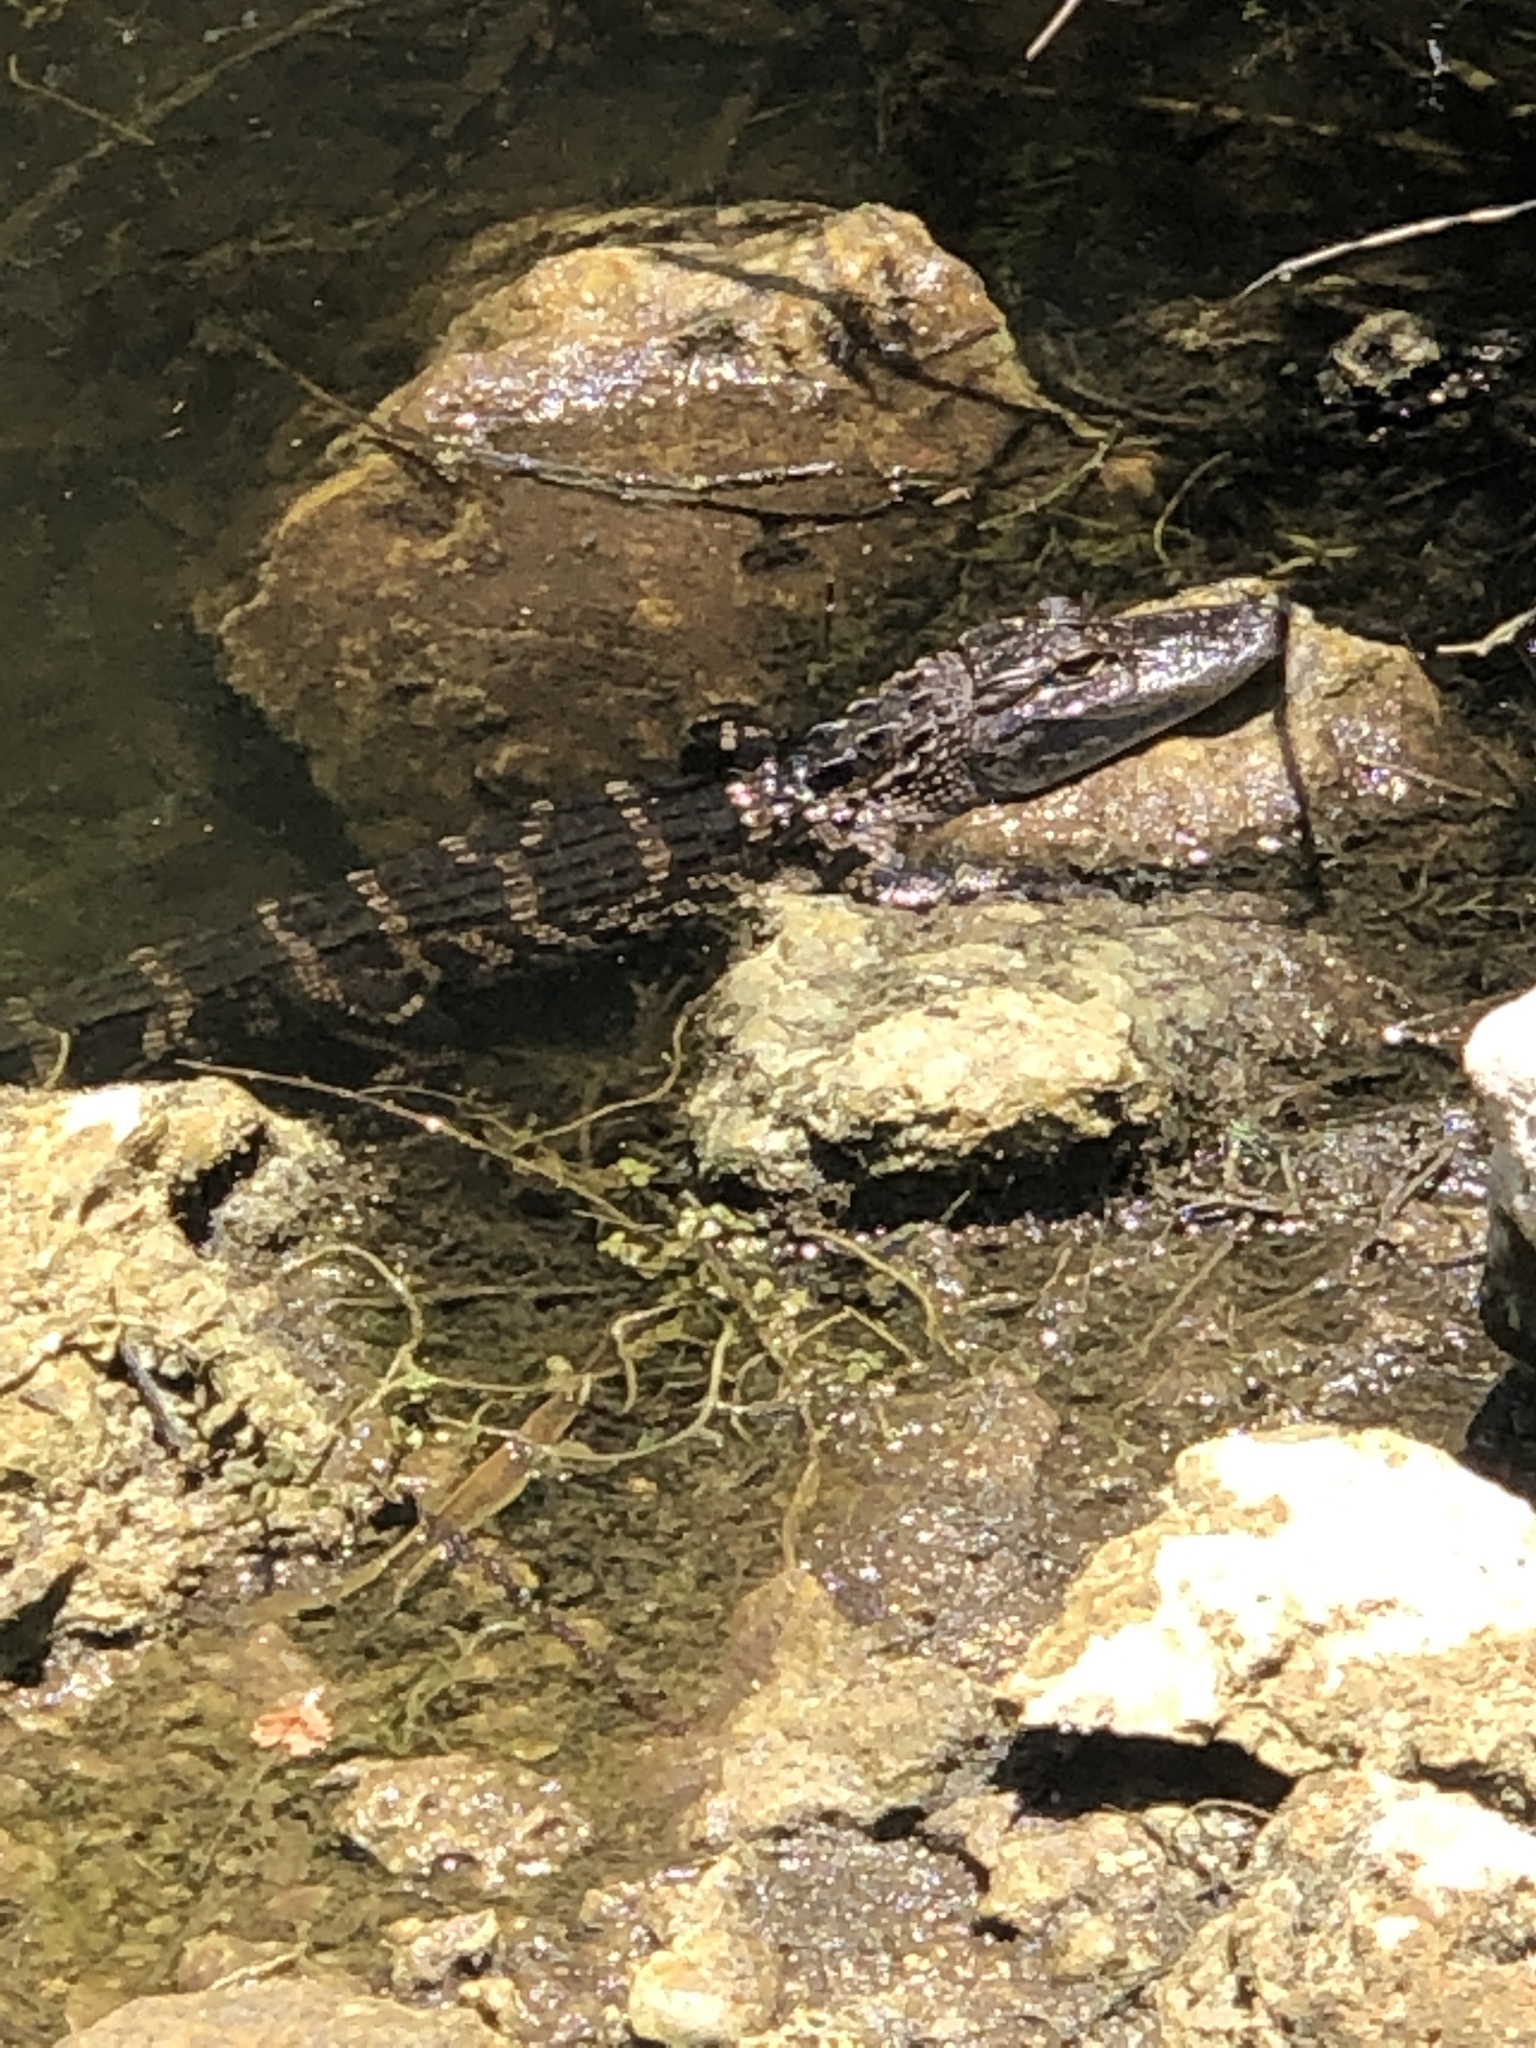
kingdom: Animalia
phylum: Chordata
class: Crocodylia
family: Alligatoridae
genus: Alligator
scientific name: Alligator mississippiensis
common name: American alligator
